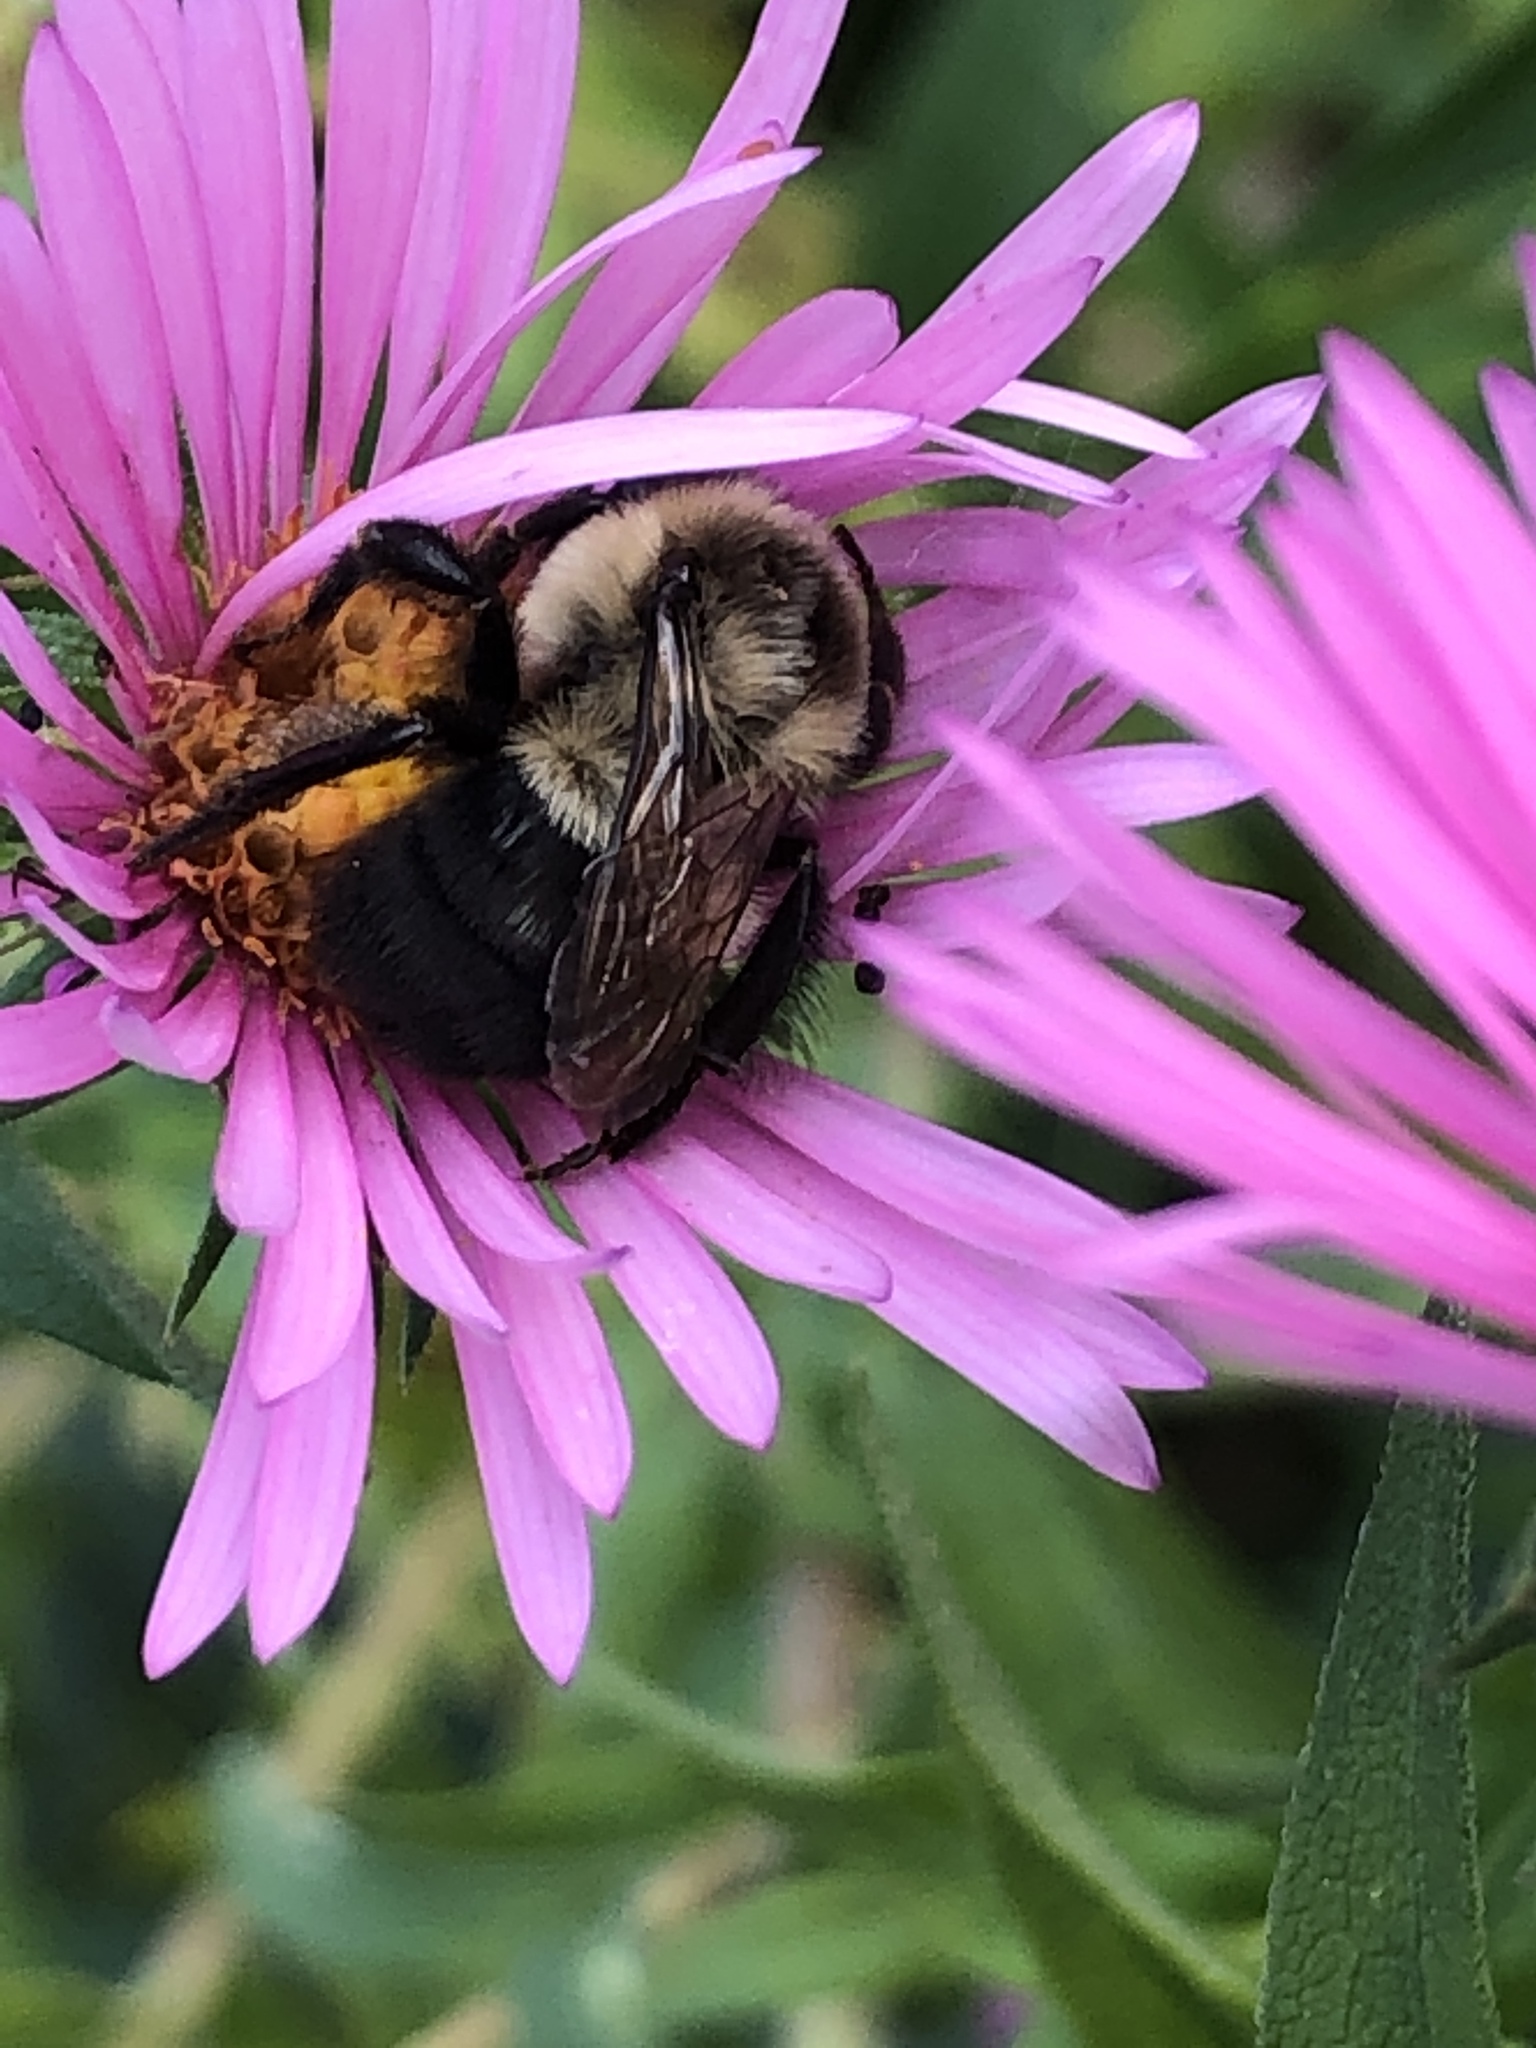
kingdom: Animalia
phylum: Arthropoda
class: Insecta
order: Hymenoptera
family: Apidae
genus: Bombus
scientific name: Bombus impatiens
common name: Common eastern bumble bee
